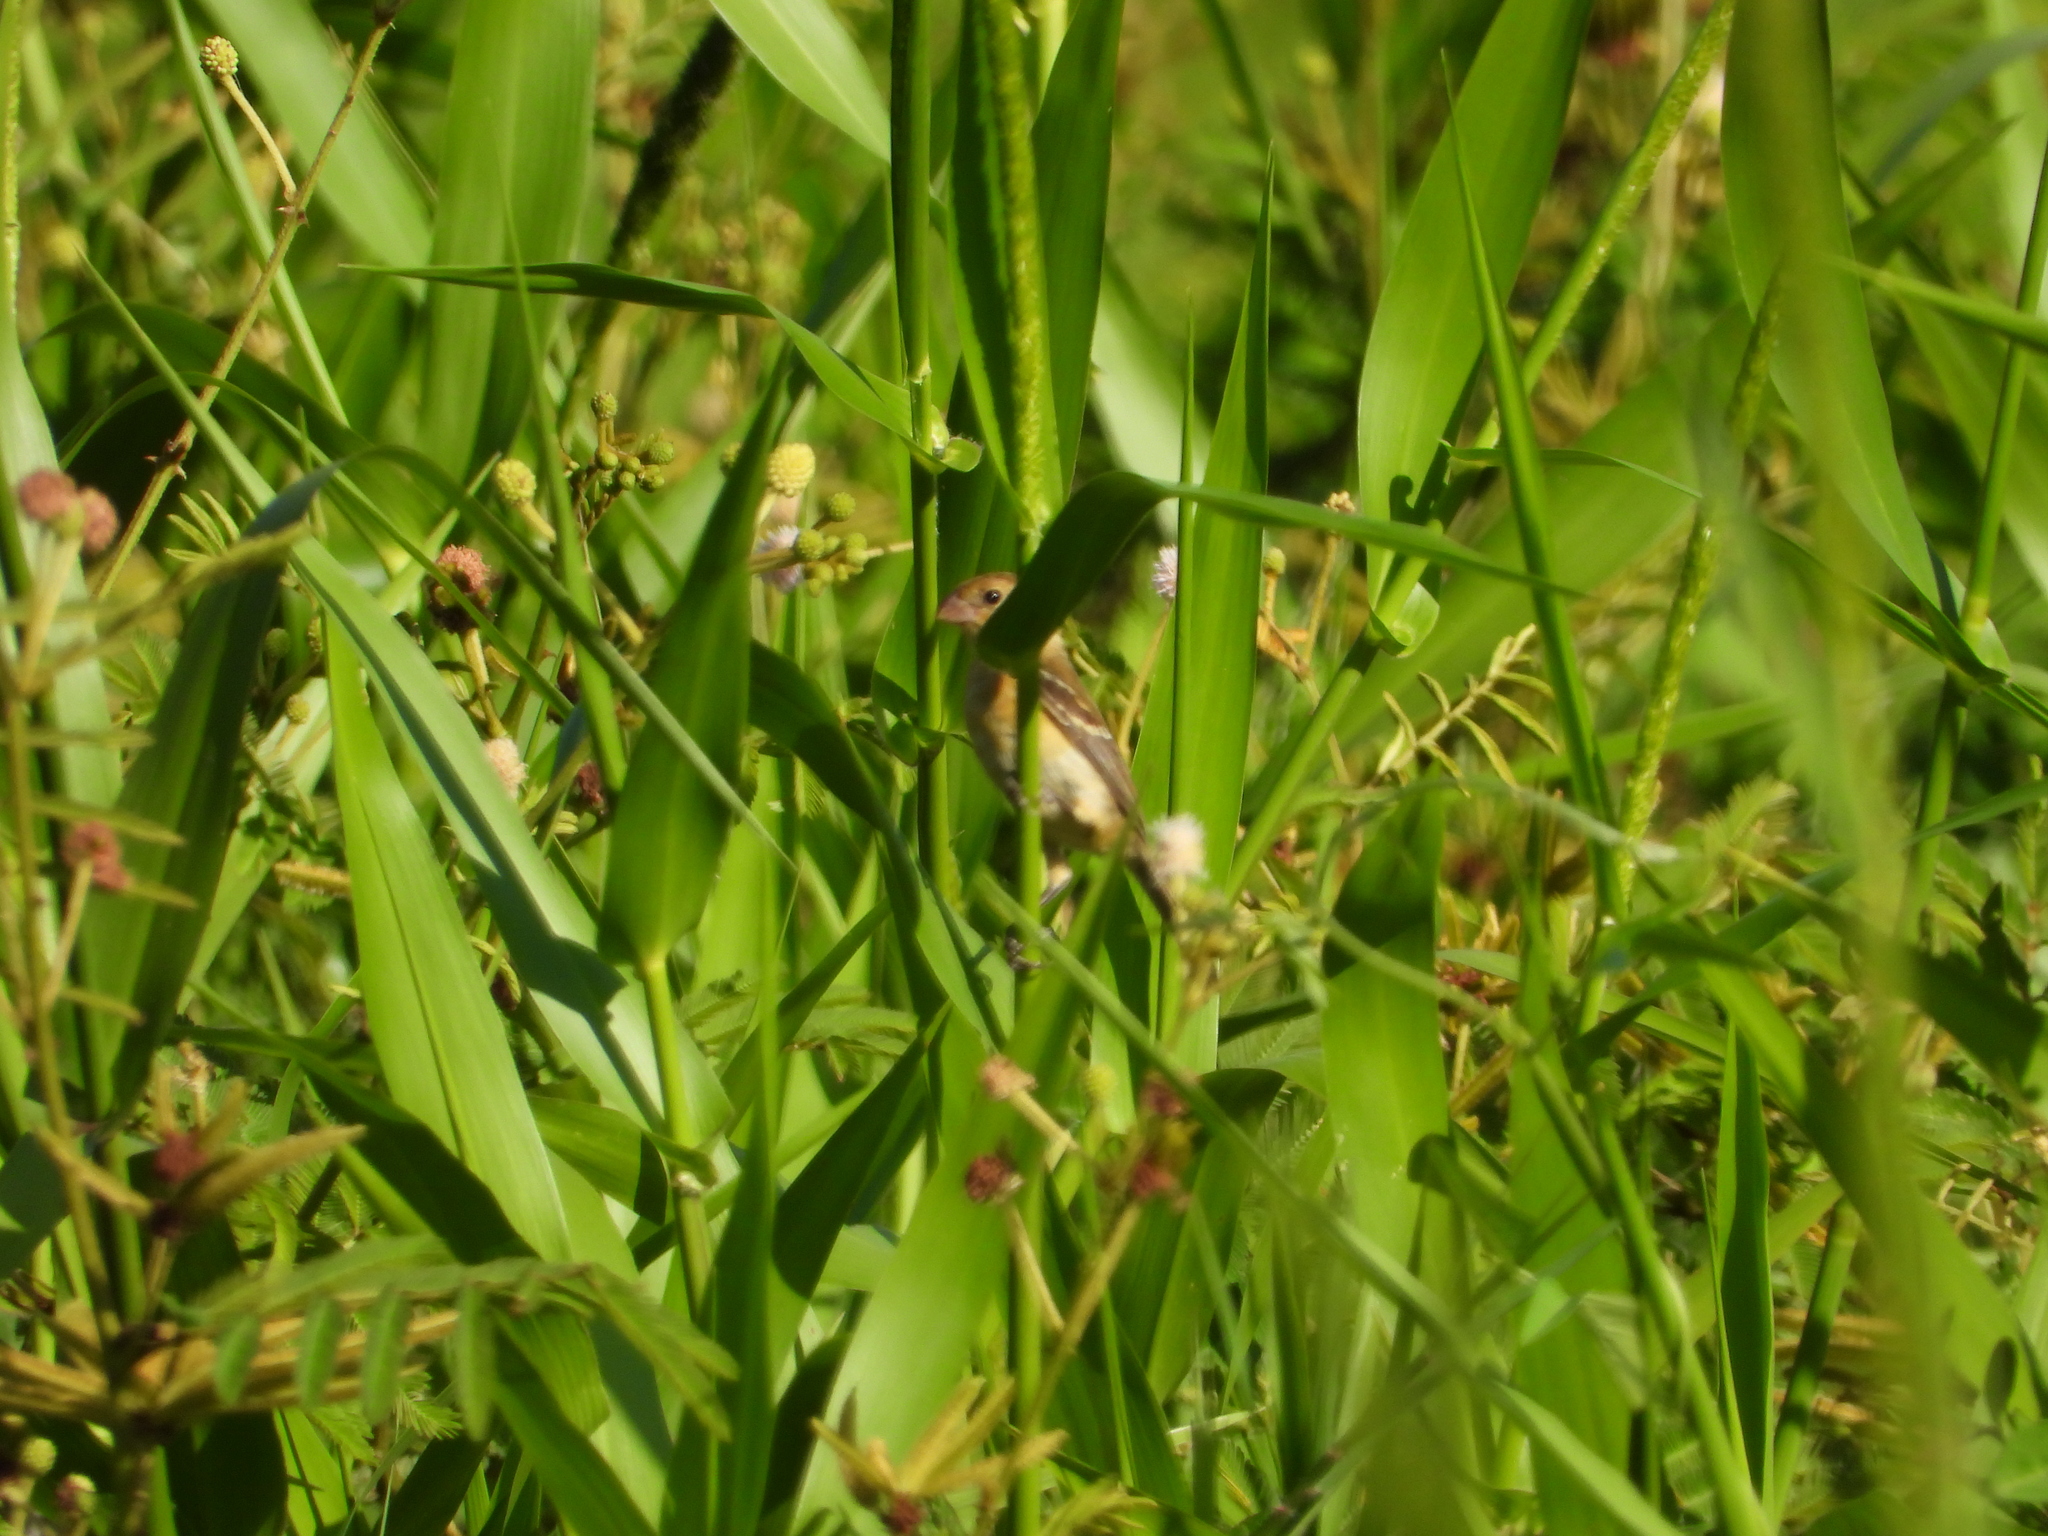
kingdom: Animalia
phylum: Chordata
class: Aves
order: Passeriformes
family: Thraupidae
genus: Sporophila
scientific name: Sporophila morelleti
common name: Morelet's seedeater
